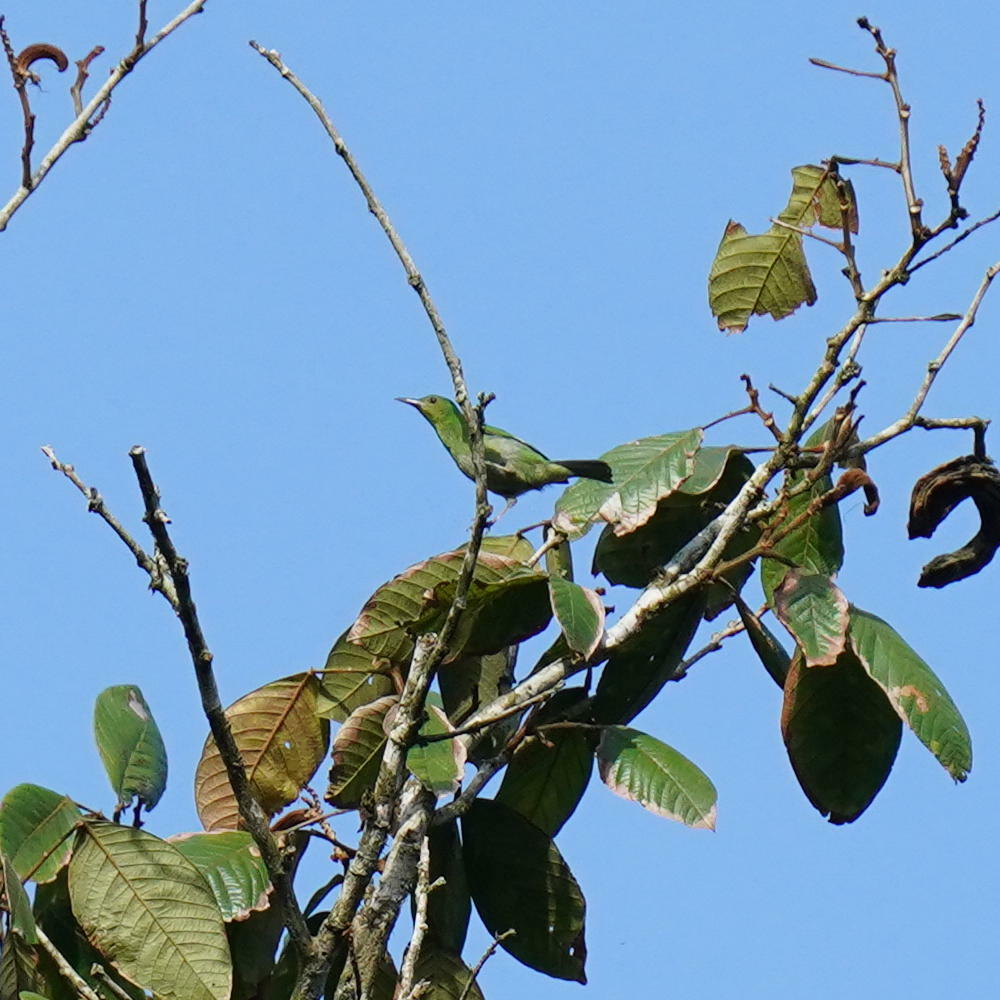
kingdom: Animalia
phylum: Chordata
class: Aves
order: Passeriformes
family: Thraupidae
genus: Chlorophanes
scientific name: Chlorophanes spiza
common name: Green honeycreeper
